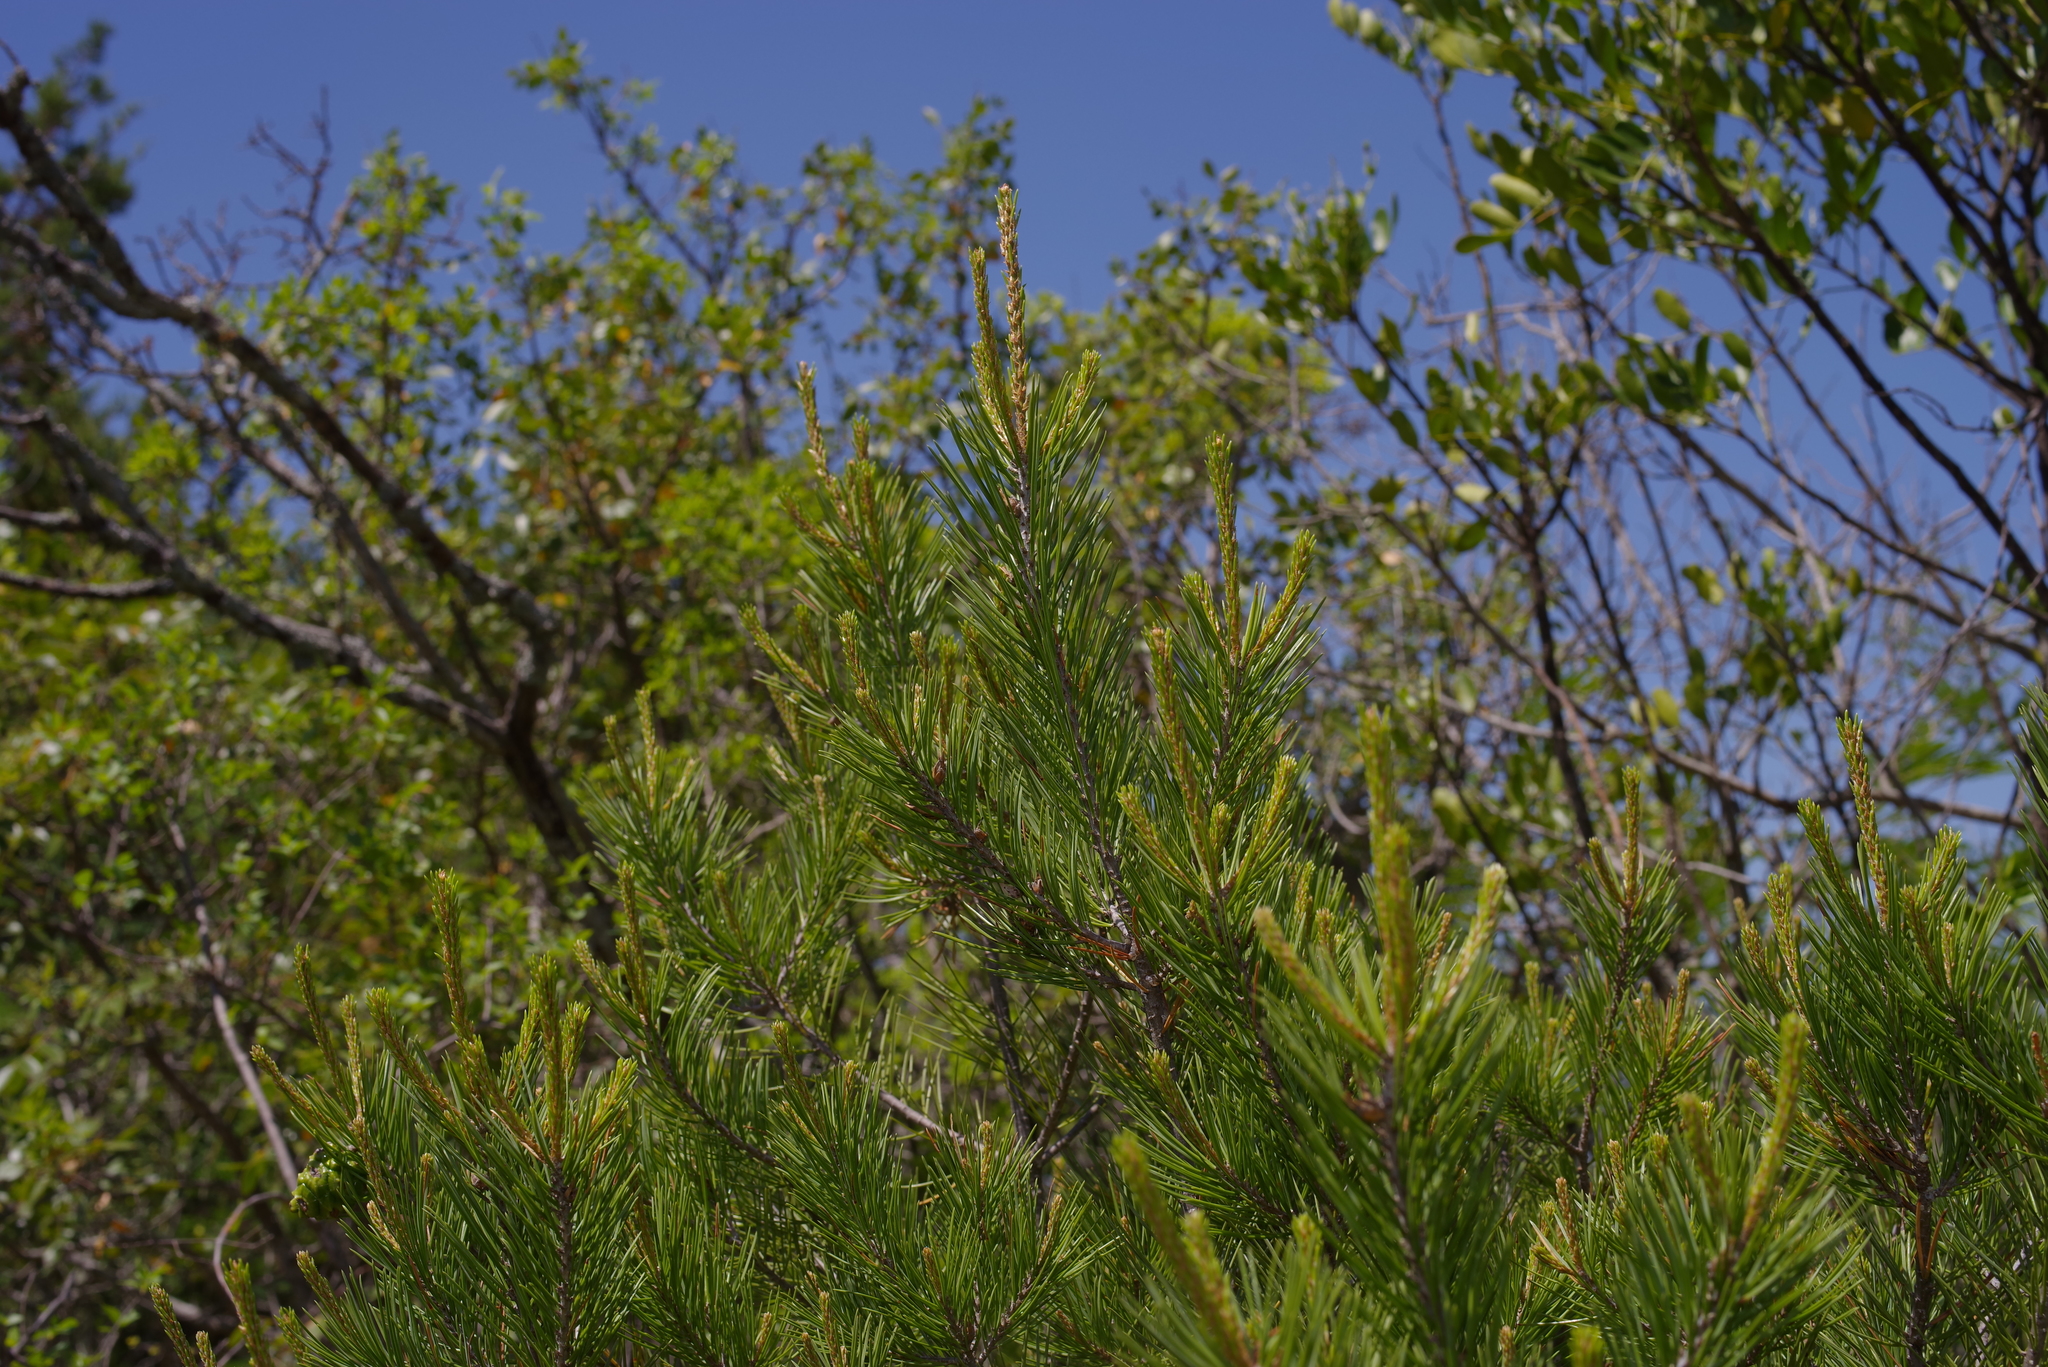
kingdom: Plantae
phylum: Tracheophyta
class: Pinopsida
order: Pinales
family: Pinaceae
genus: Pinus
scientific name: Pinus remota
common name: Nut pine
